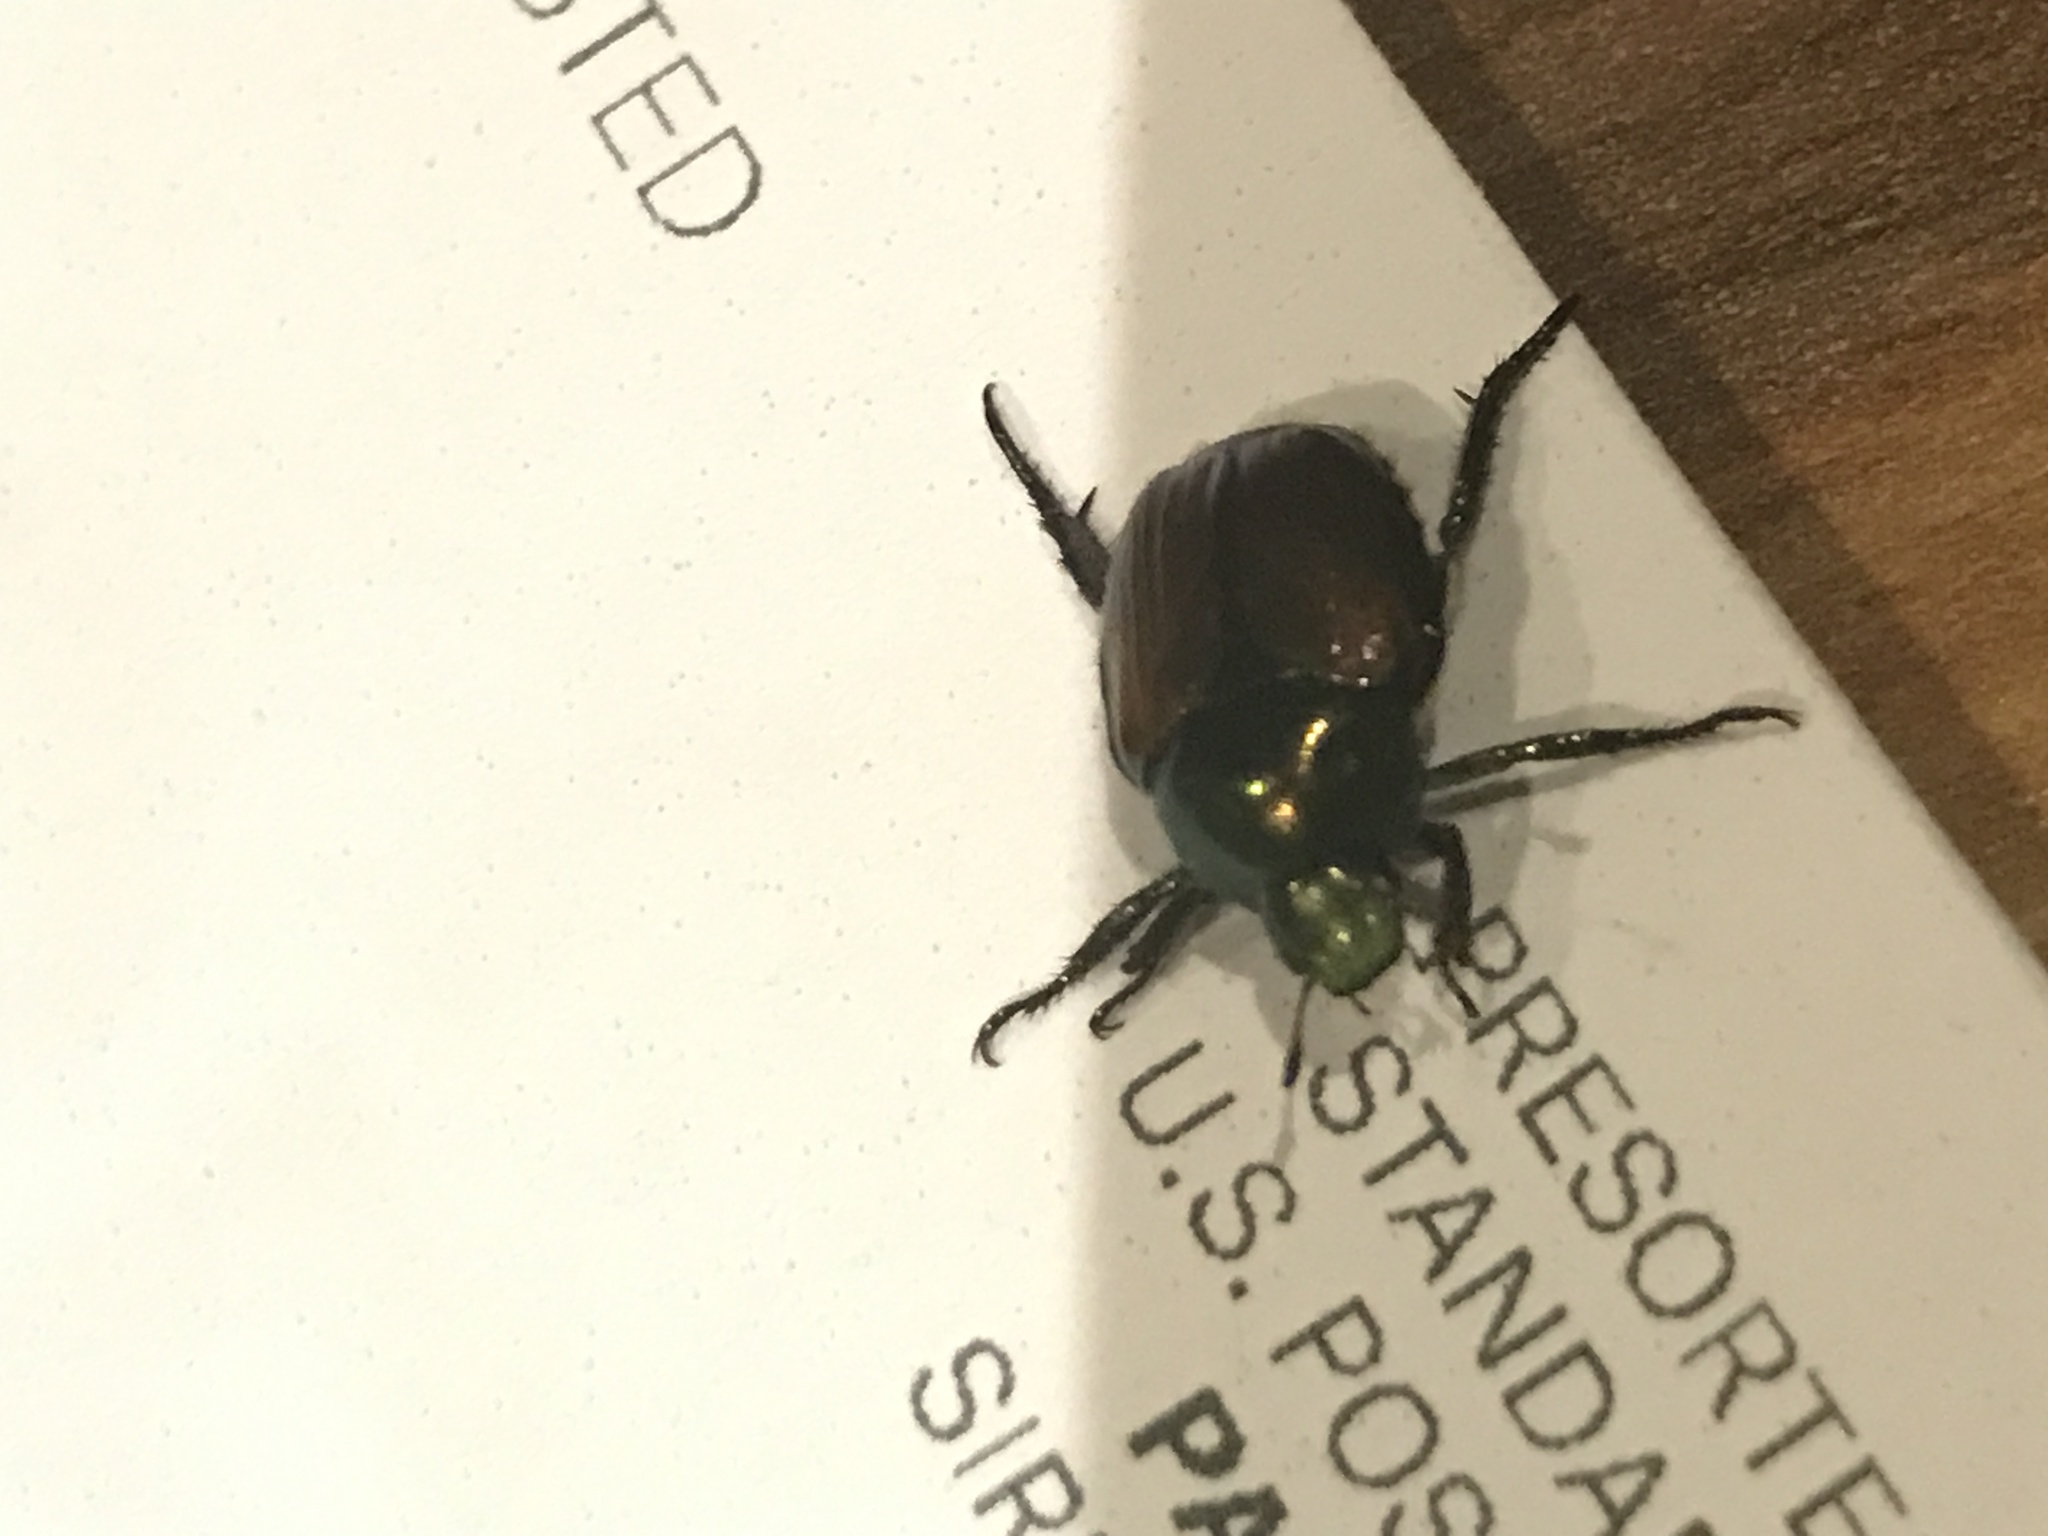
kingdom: Animalia
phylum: Arthropoda
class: Insecta
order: Coleoptera
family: Scarabaeidae
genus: Popillia
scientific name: Popillia japonica
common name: Japanese beetle
